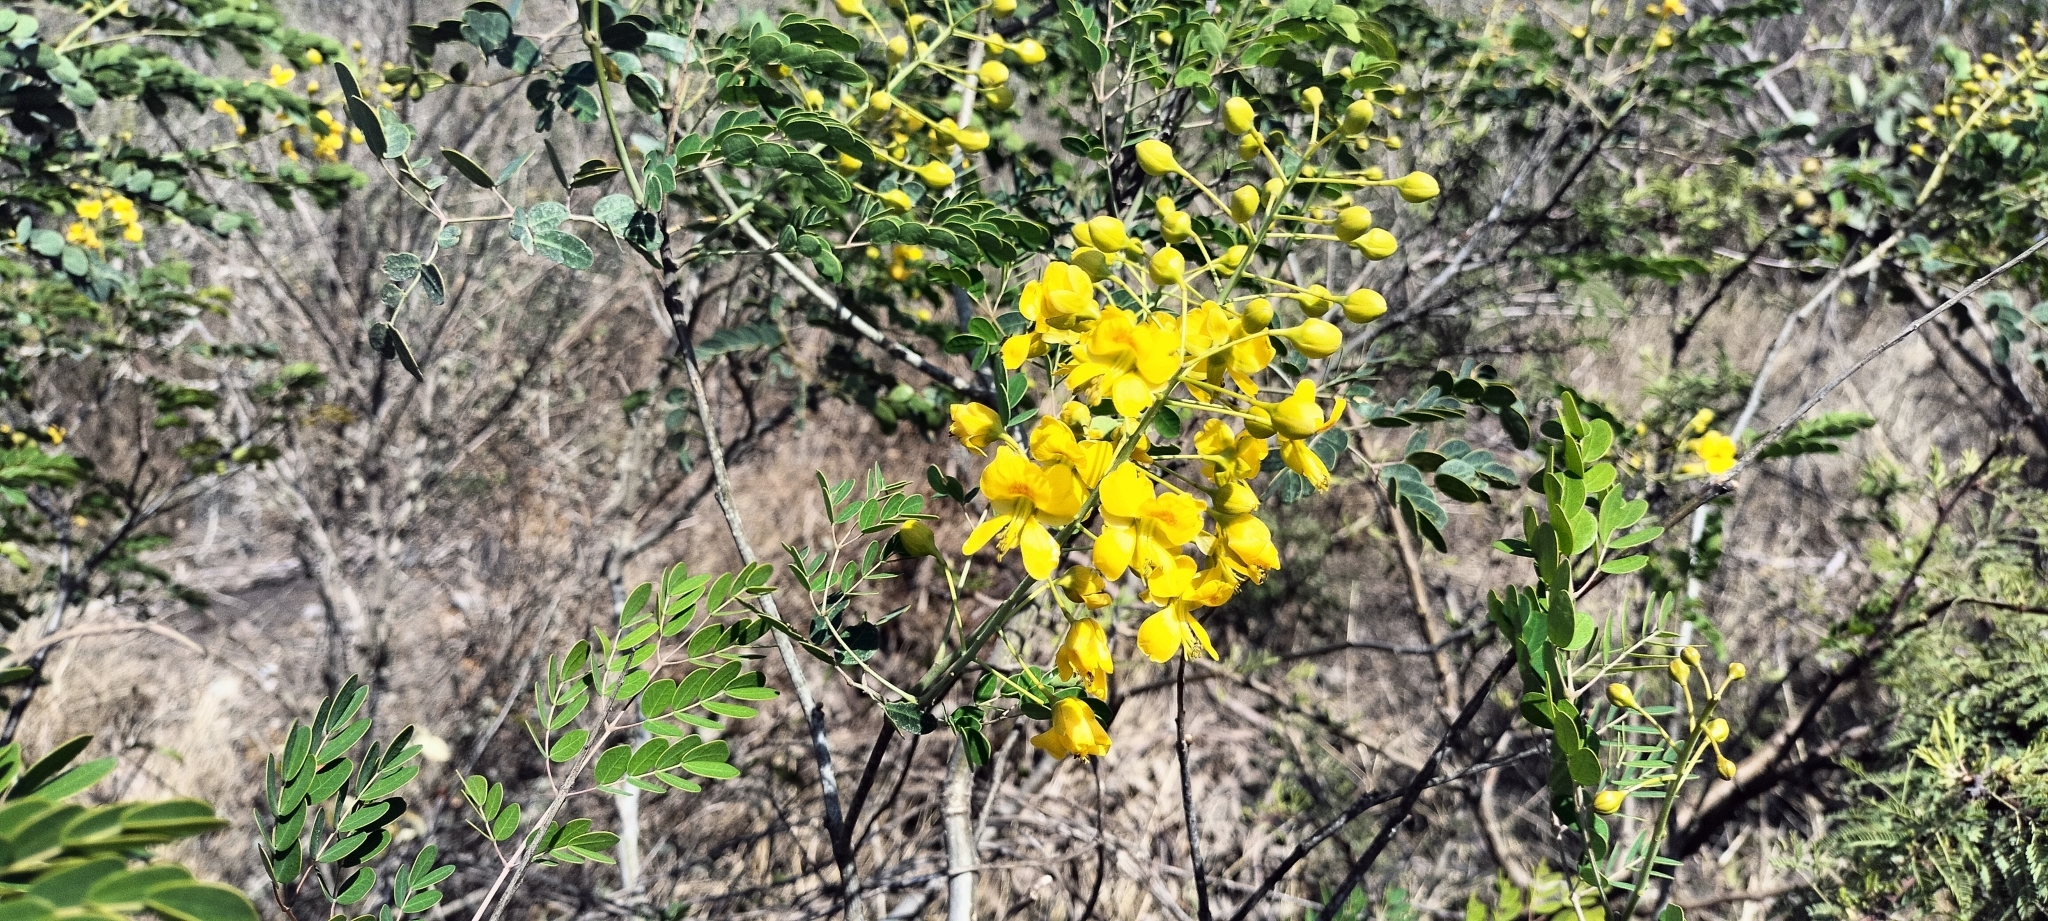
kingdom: Plantae
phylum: Tracheophyta
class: Magnoliopsida
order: Fabales
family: Fabaceae
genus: Erythrostemon
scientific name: Erythrostemon mexicanus
